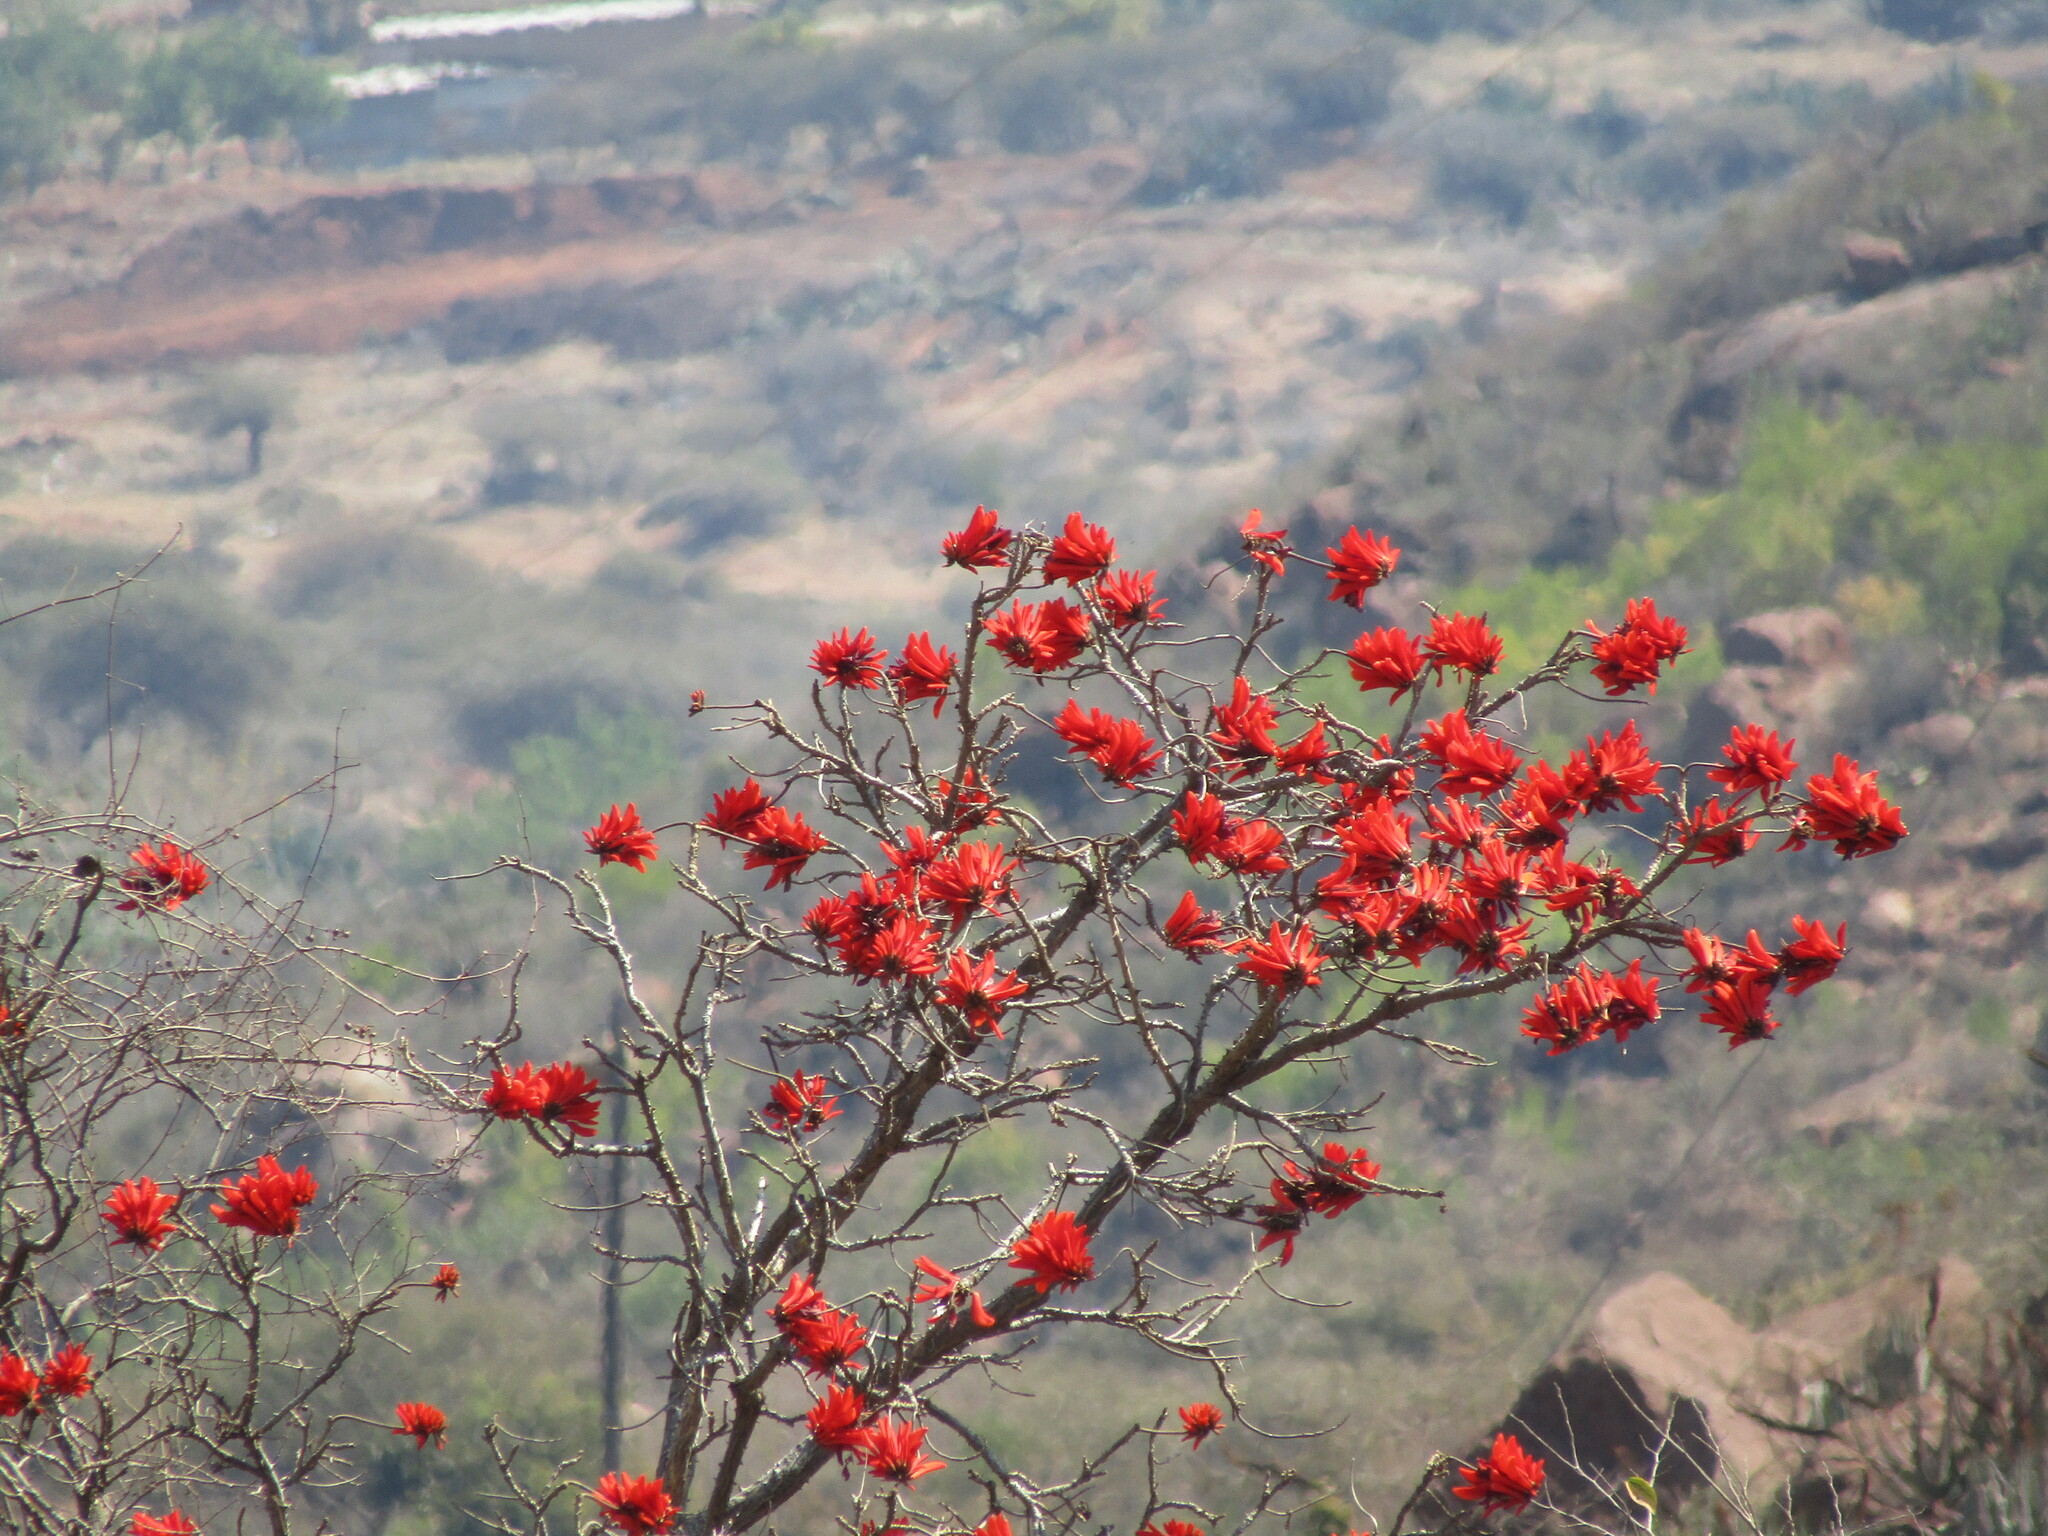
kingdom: Plantae
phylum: Tracheophyta
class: Magnoliopsida
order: Fabales
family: Fabaceae
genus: Erythrina
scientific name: Erythrina lysistemon
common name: Common coral tree
